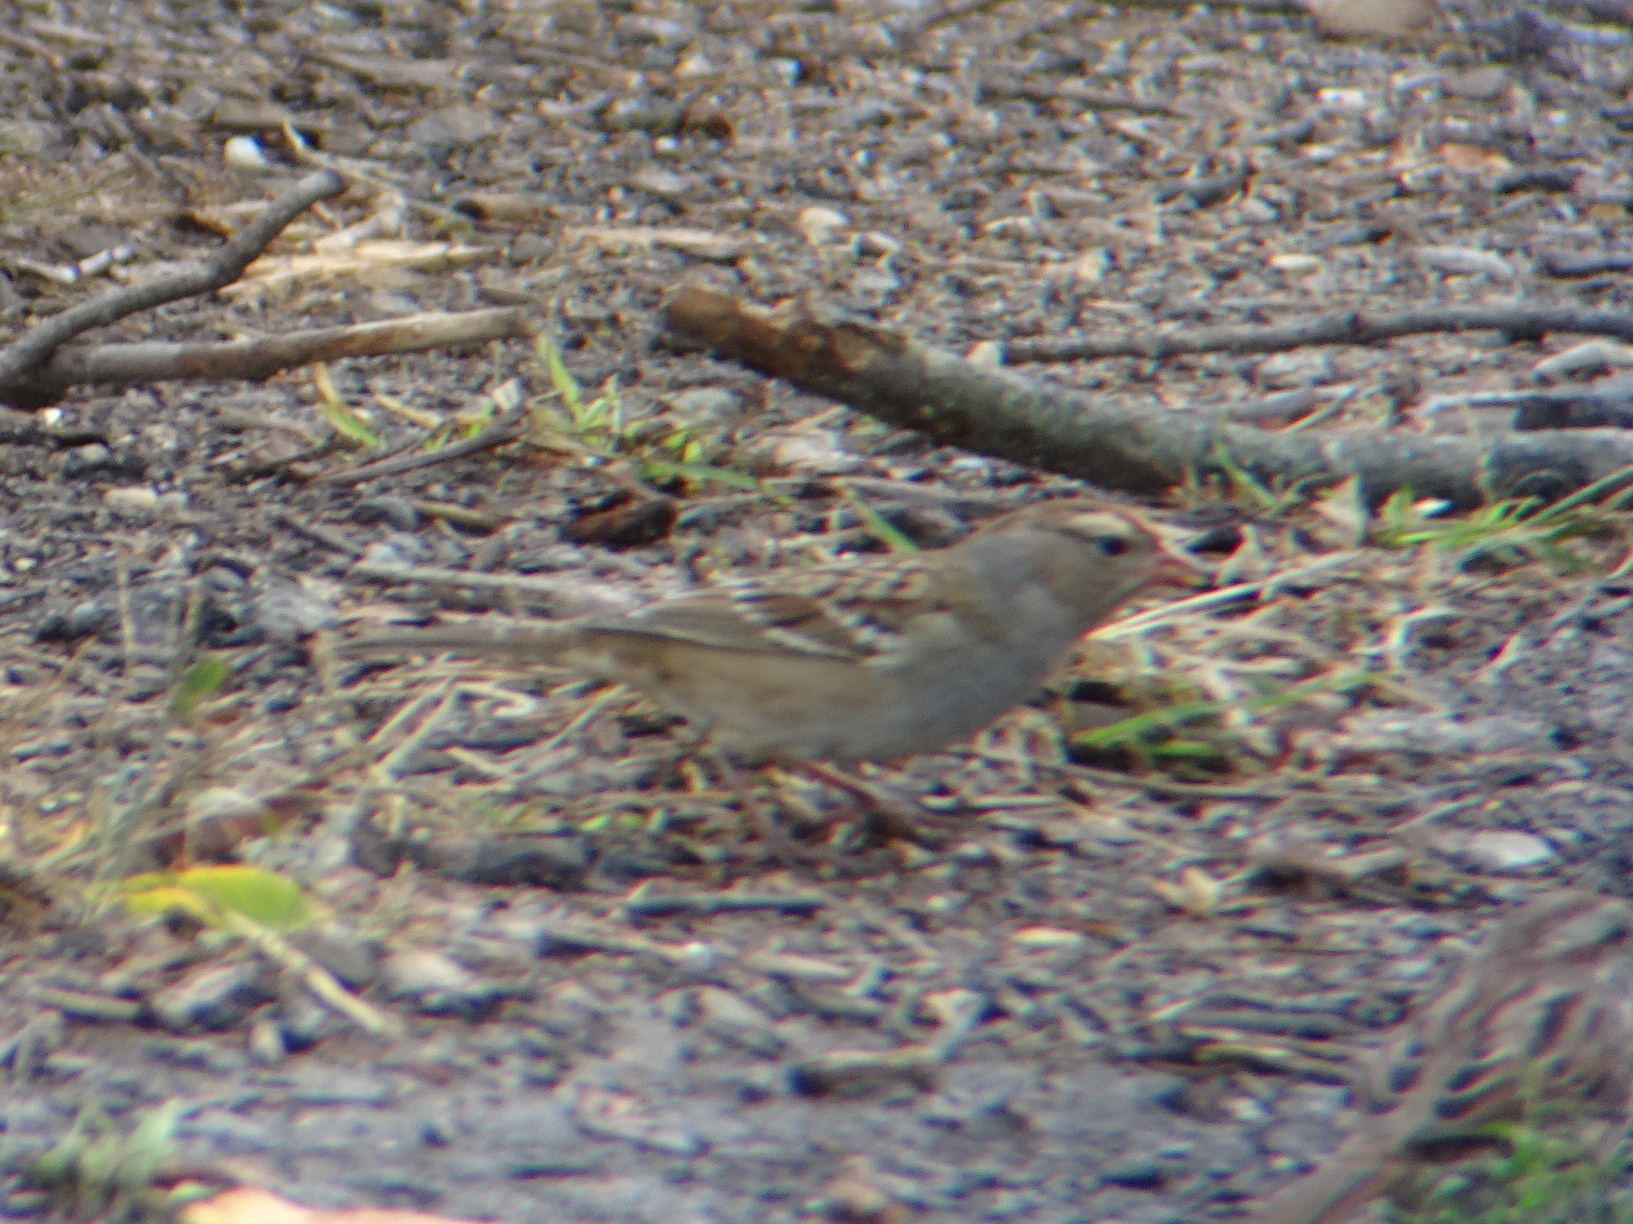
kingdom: Animalia
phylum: Chordata
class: Aves
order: Passeriformes
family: Passerellidae
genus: Zonotrichia
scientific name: Zonotrichia leucophrys
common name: White-crowned sparrow
